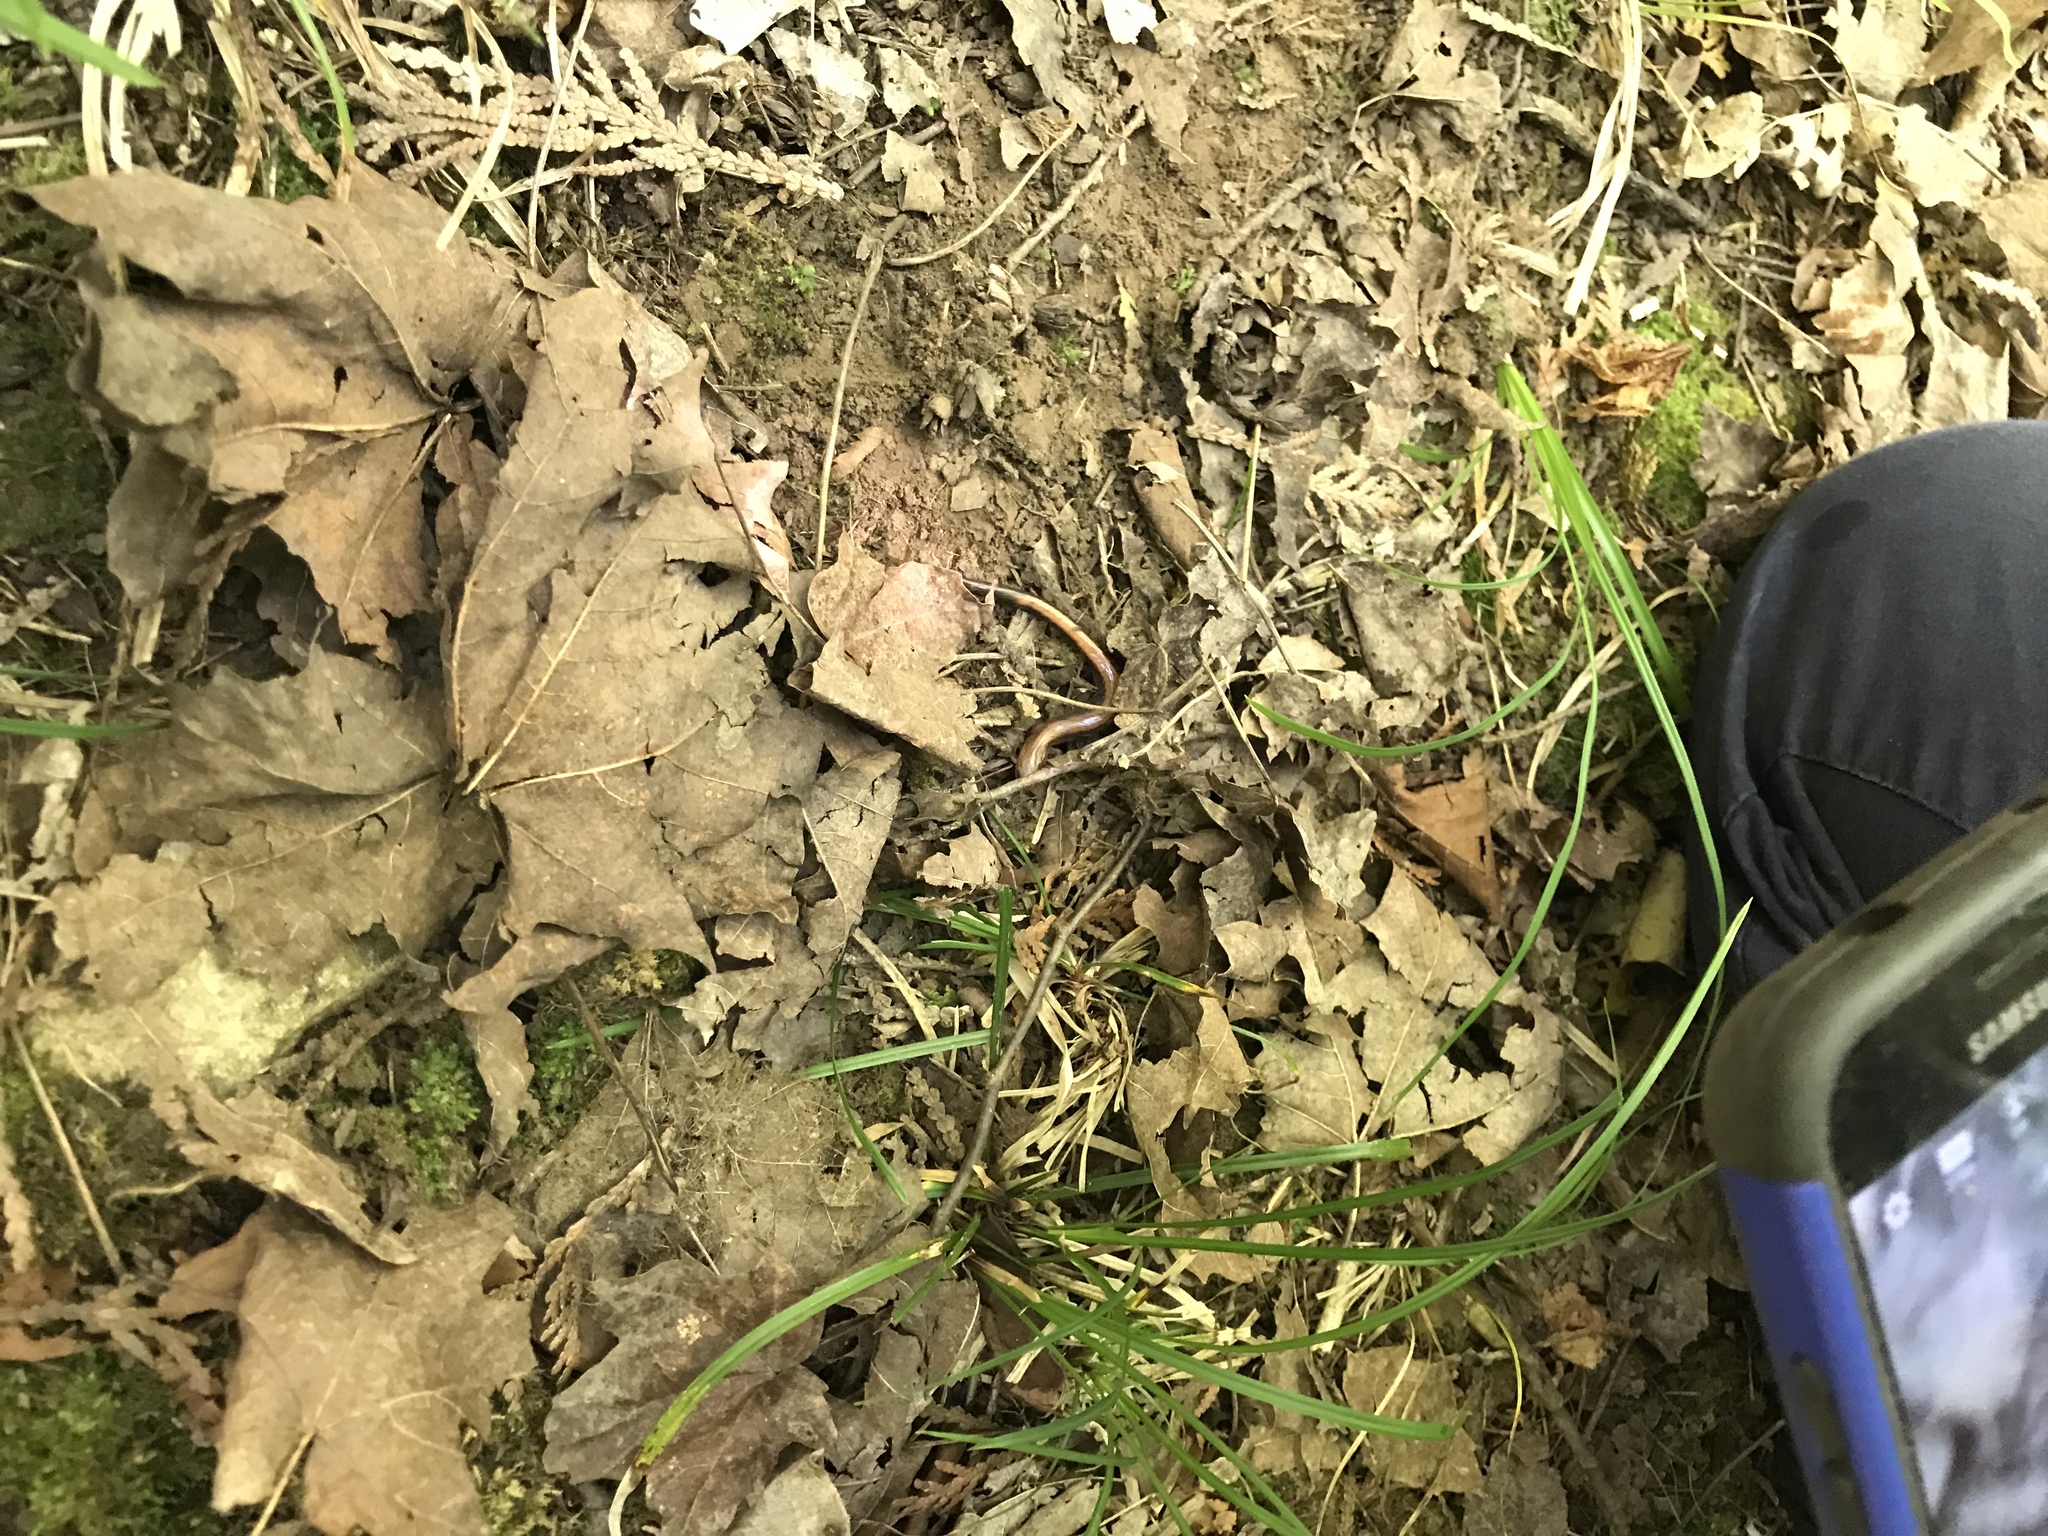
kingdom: Animalia
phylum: Chordata
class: Amphibia
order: Caudata
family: Plethodontidae
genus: Plethodon
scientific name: Plethodon cinereus
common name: Redback salamander
